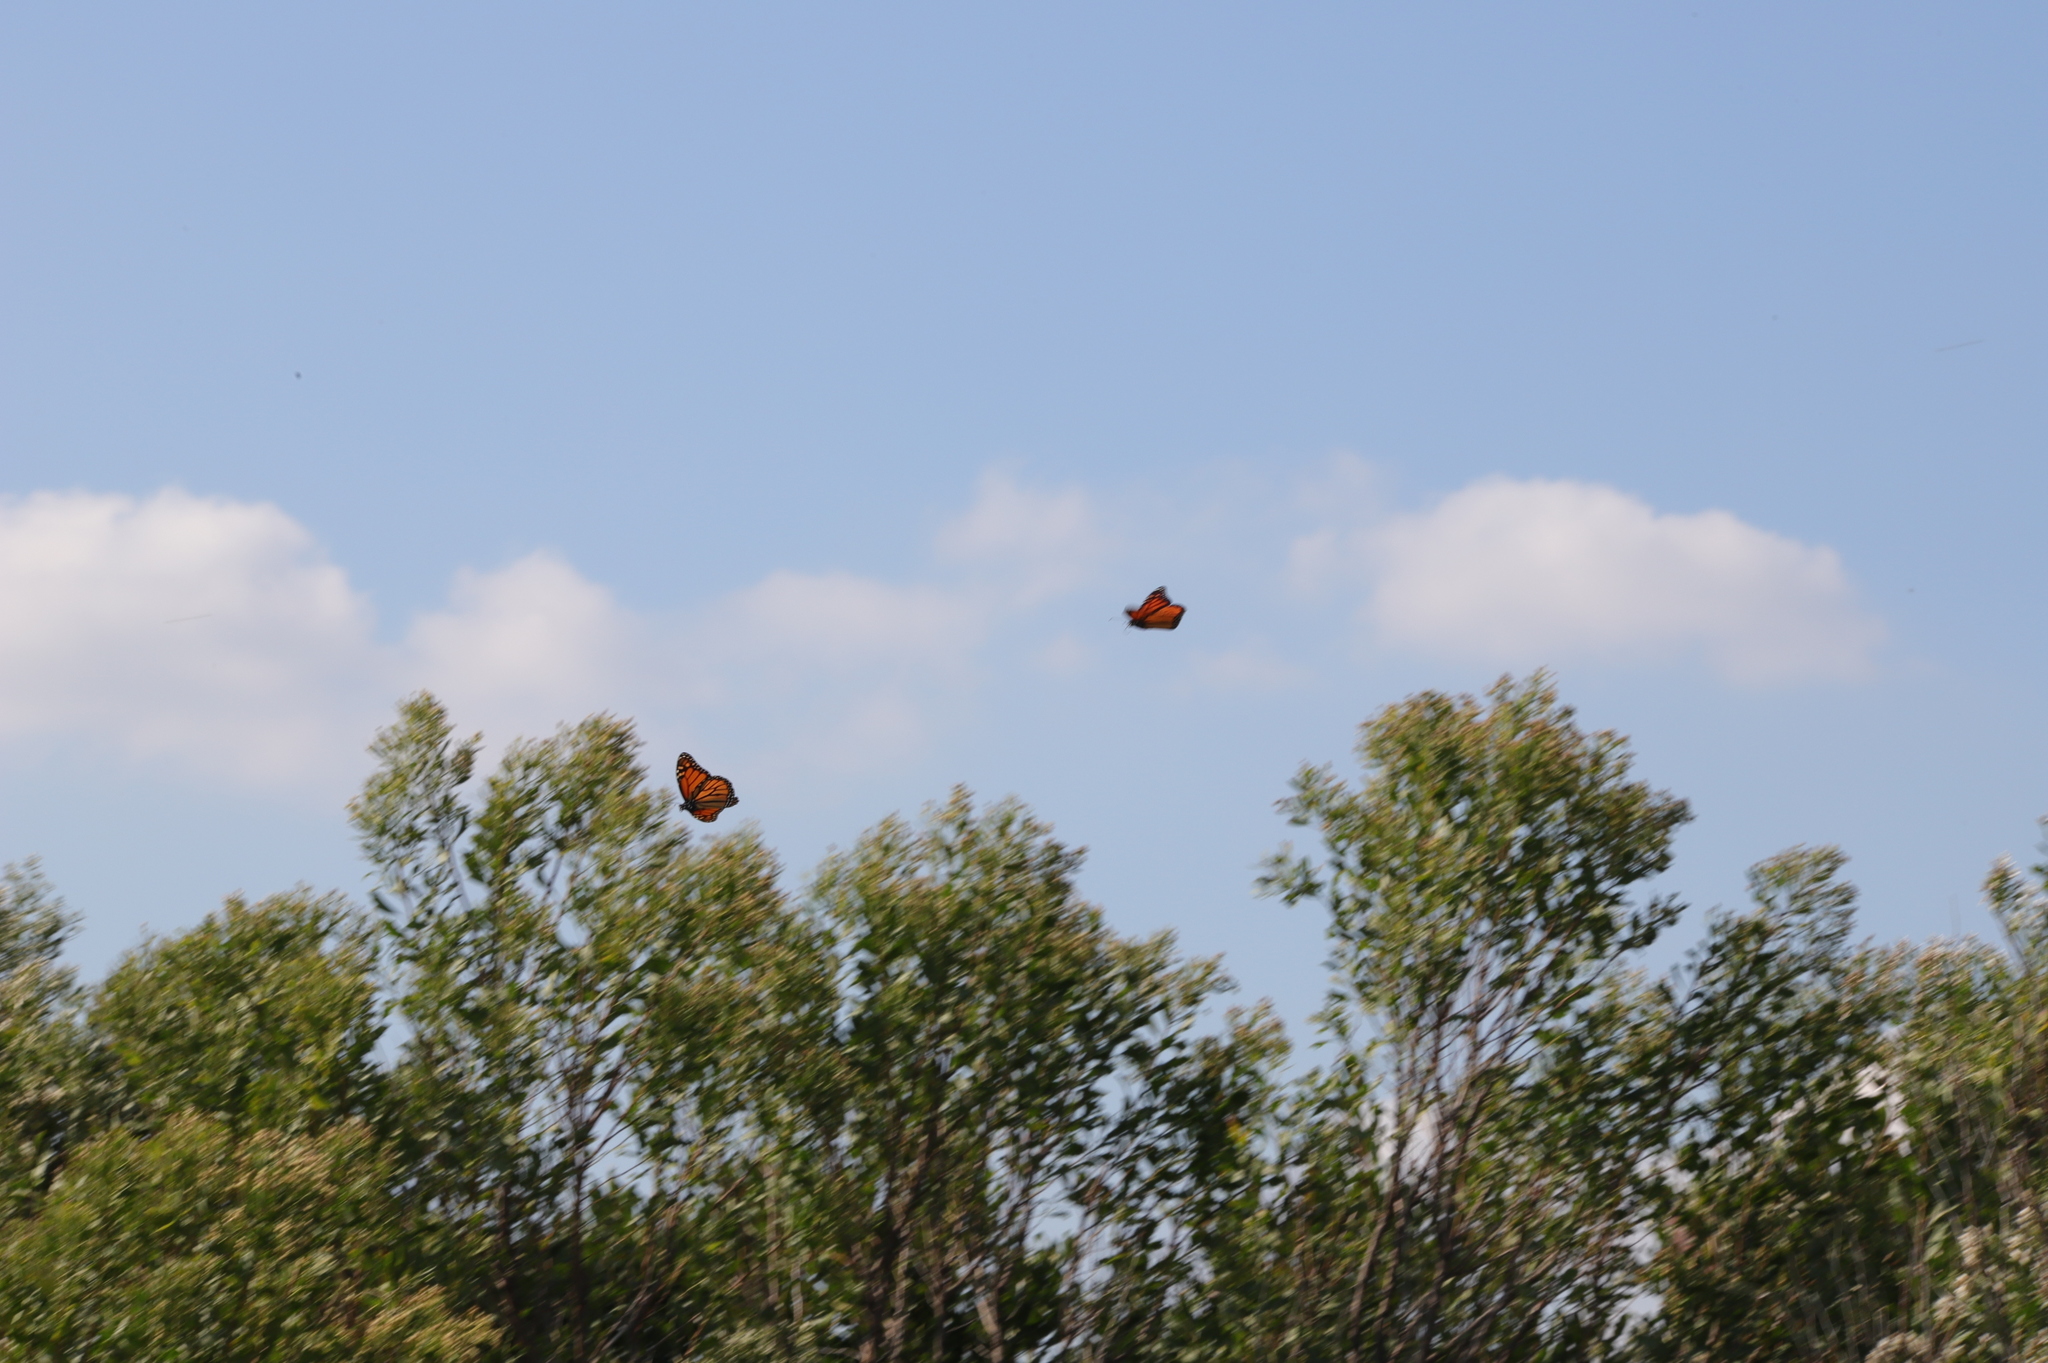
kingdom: Animalia
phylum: Arthropoda
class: Insecta
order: Lepidoptera
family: Nymphalidae
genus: Danaus
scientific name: Danaus plexippus
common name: Monarch
